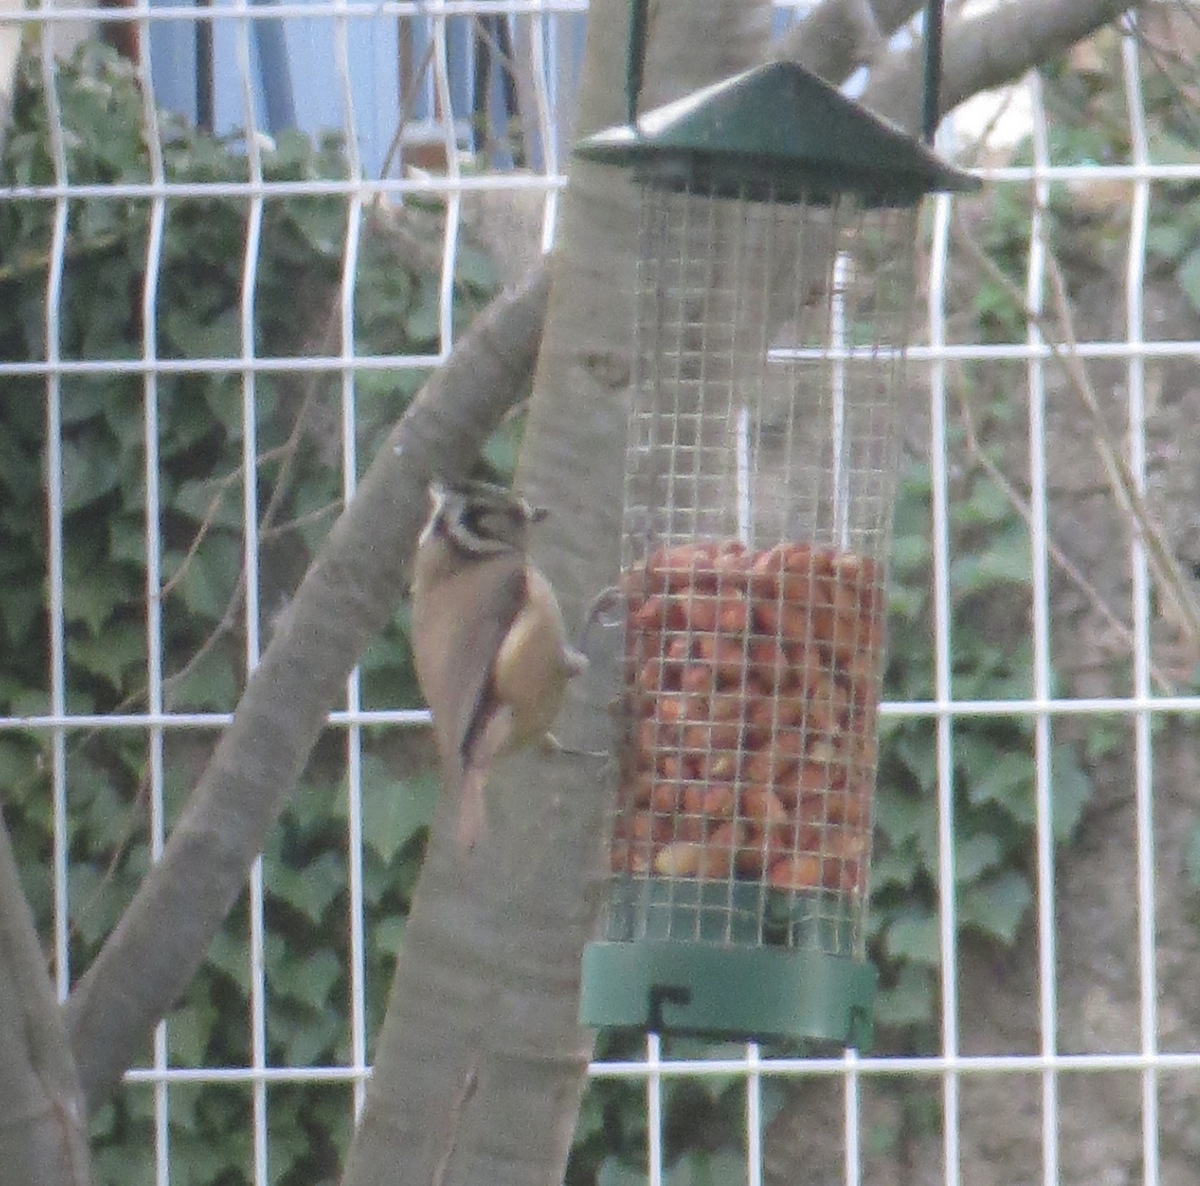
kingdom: Animalia
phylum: Chordata
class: Aves
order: Passeriformes
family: Paridae
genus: Lophophanes
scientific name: Lophophanes cristatus
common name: European crested tit
